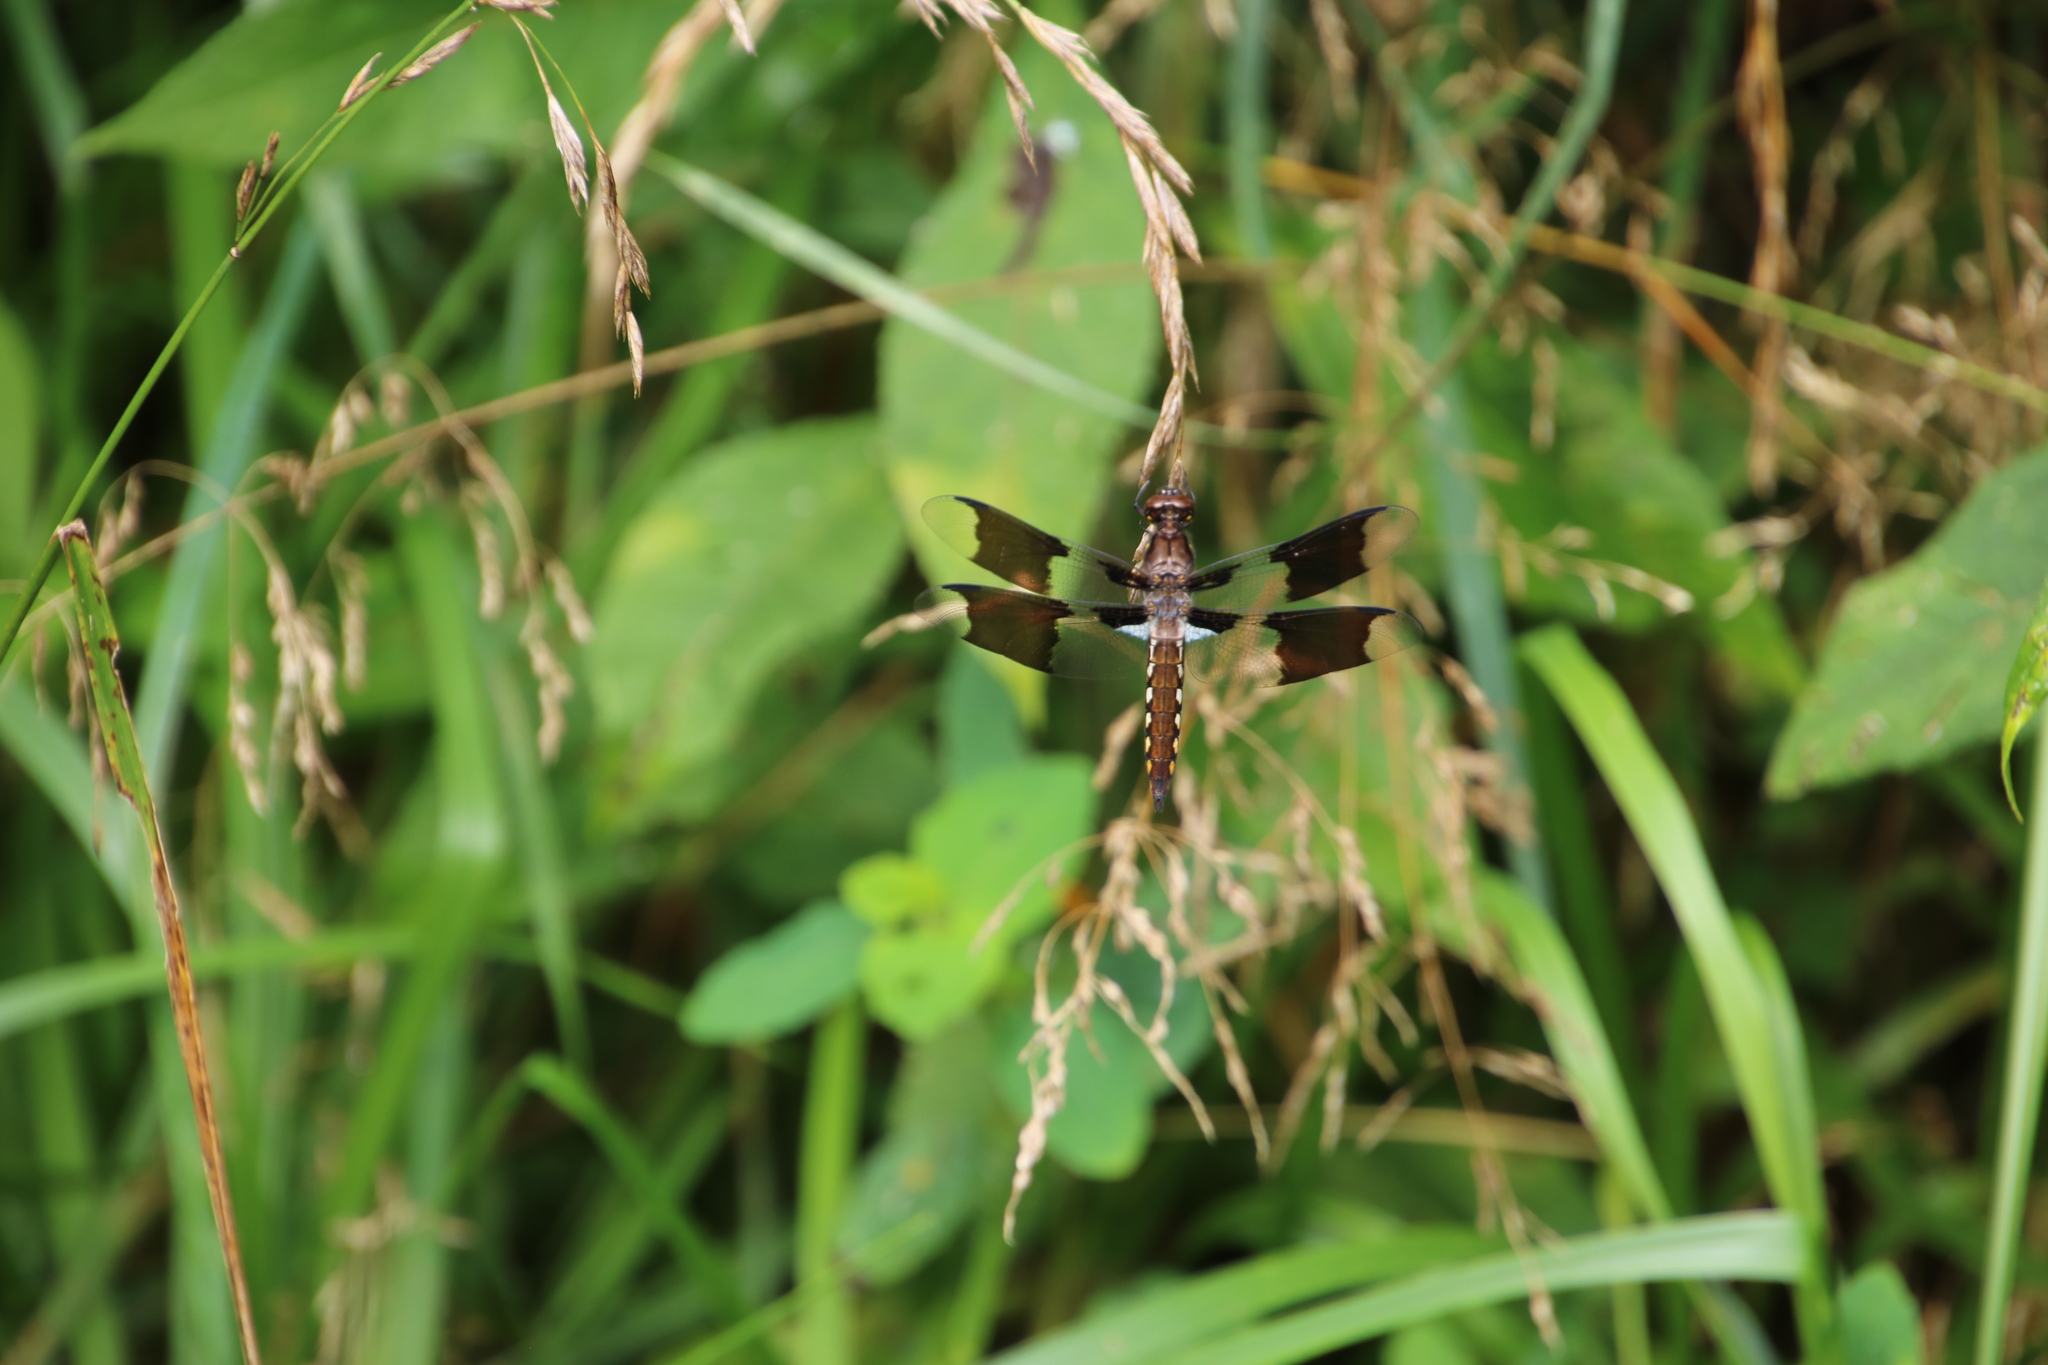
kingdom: Animalia
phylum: Arthropoda
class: Insecta
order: Odonata
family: Libellulidae
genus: Plathemis
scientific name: Plathemis lydia
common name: Common whitetail
